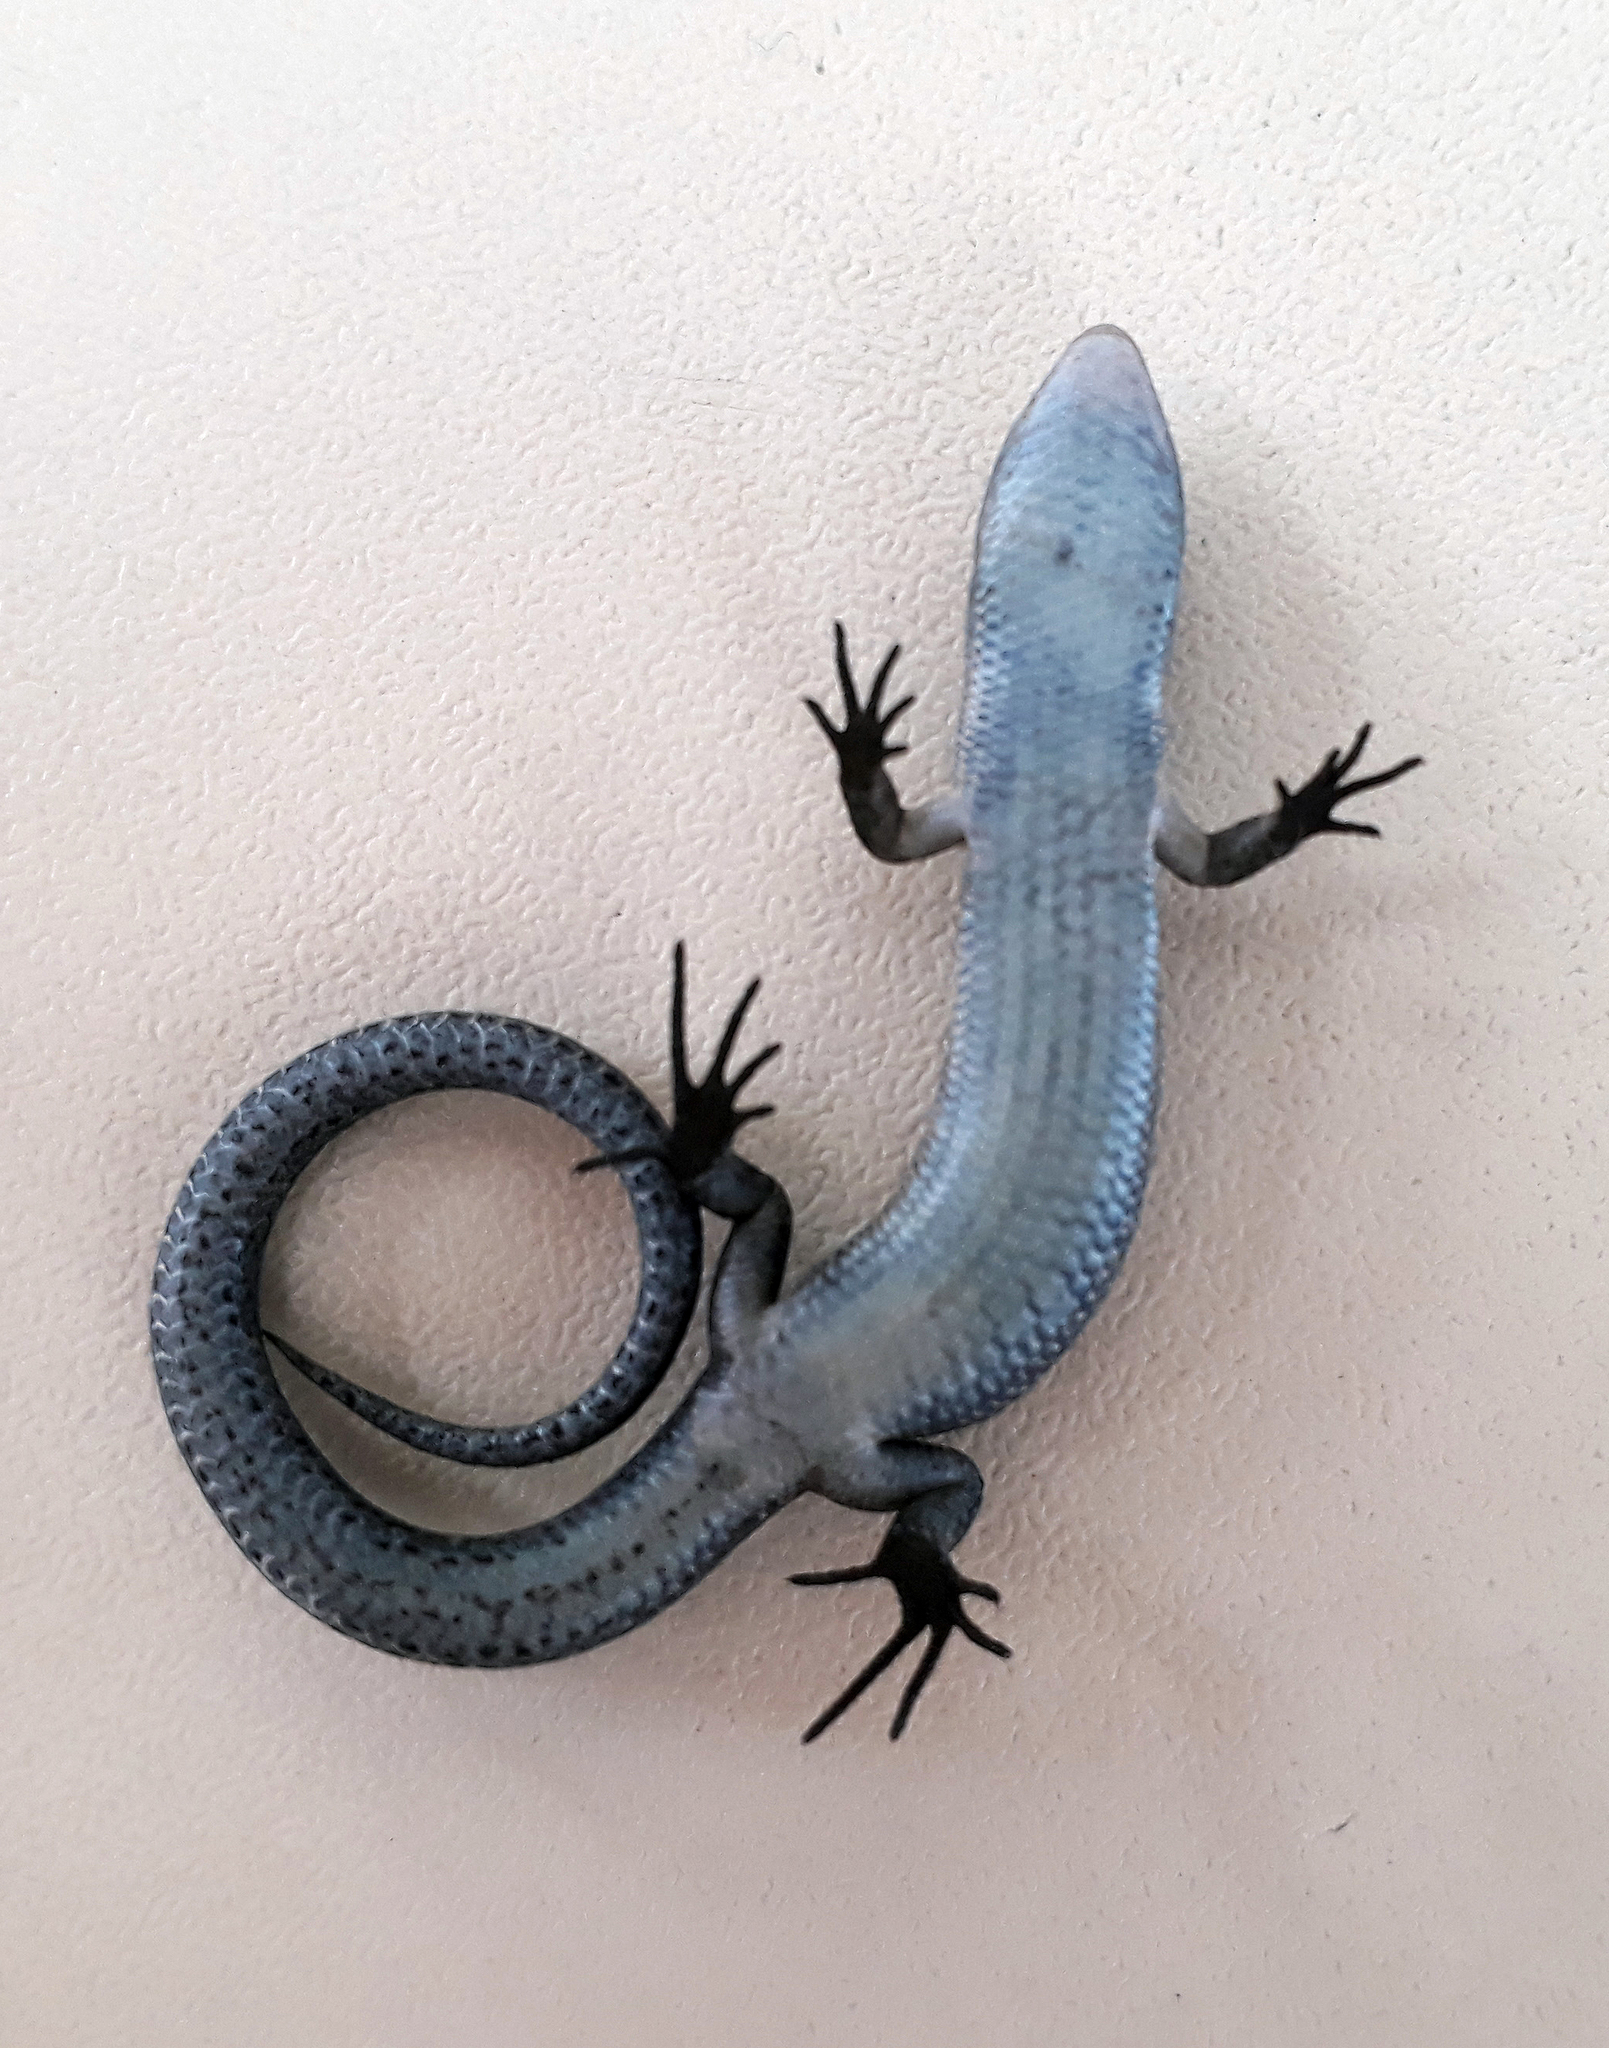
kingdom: Animalia
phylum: Chordata
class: Squamata
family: Scincidae
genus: Lampropholis
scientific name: Lampropholis delicata
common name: Plague skink
